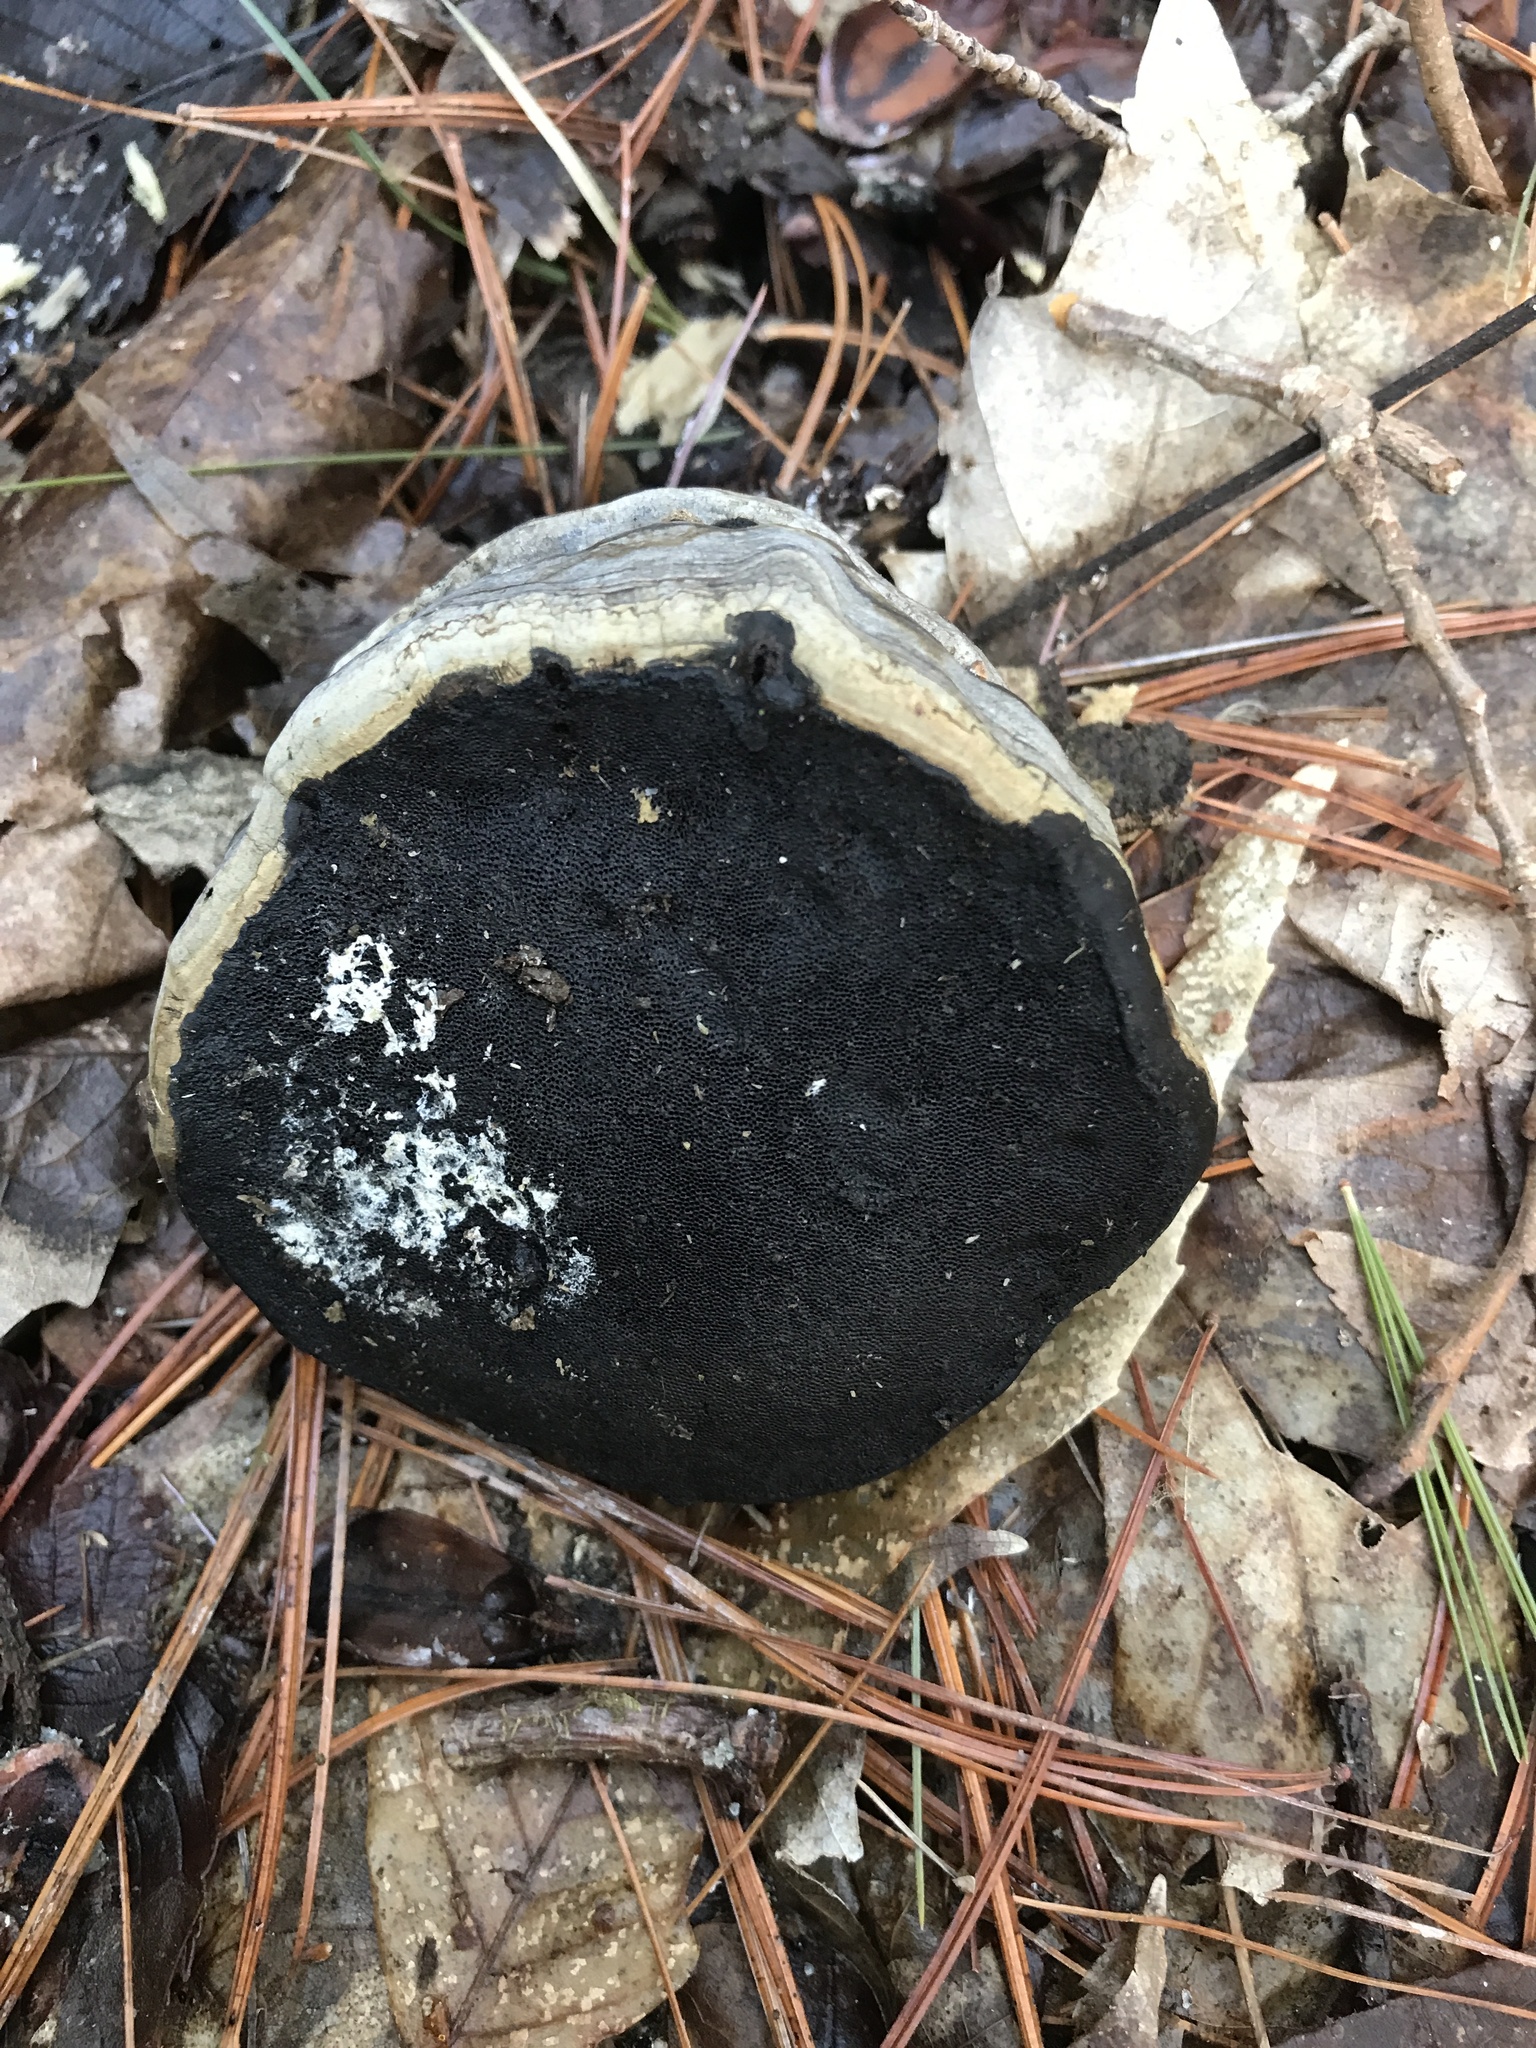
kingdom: Fungi
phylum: Basidiomycota
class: Agaricomycetes
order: Polyporales
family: Polyporaceae
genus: Fomes
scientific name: Fomes fomentarius
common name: Hoof fungus
